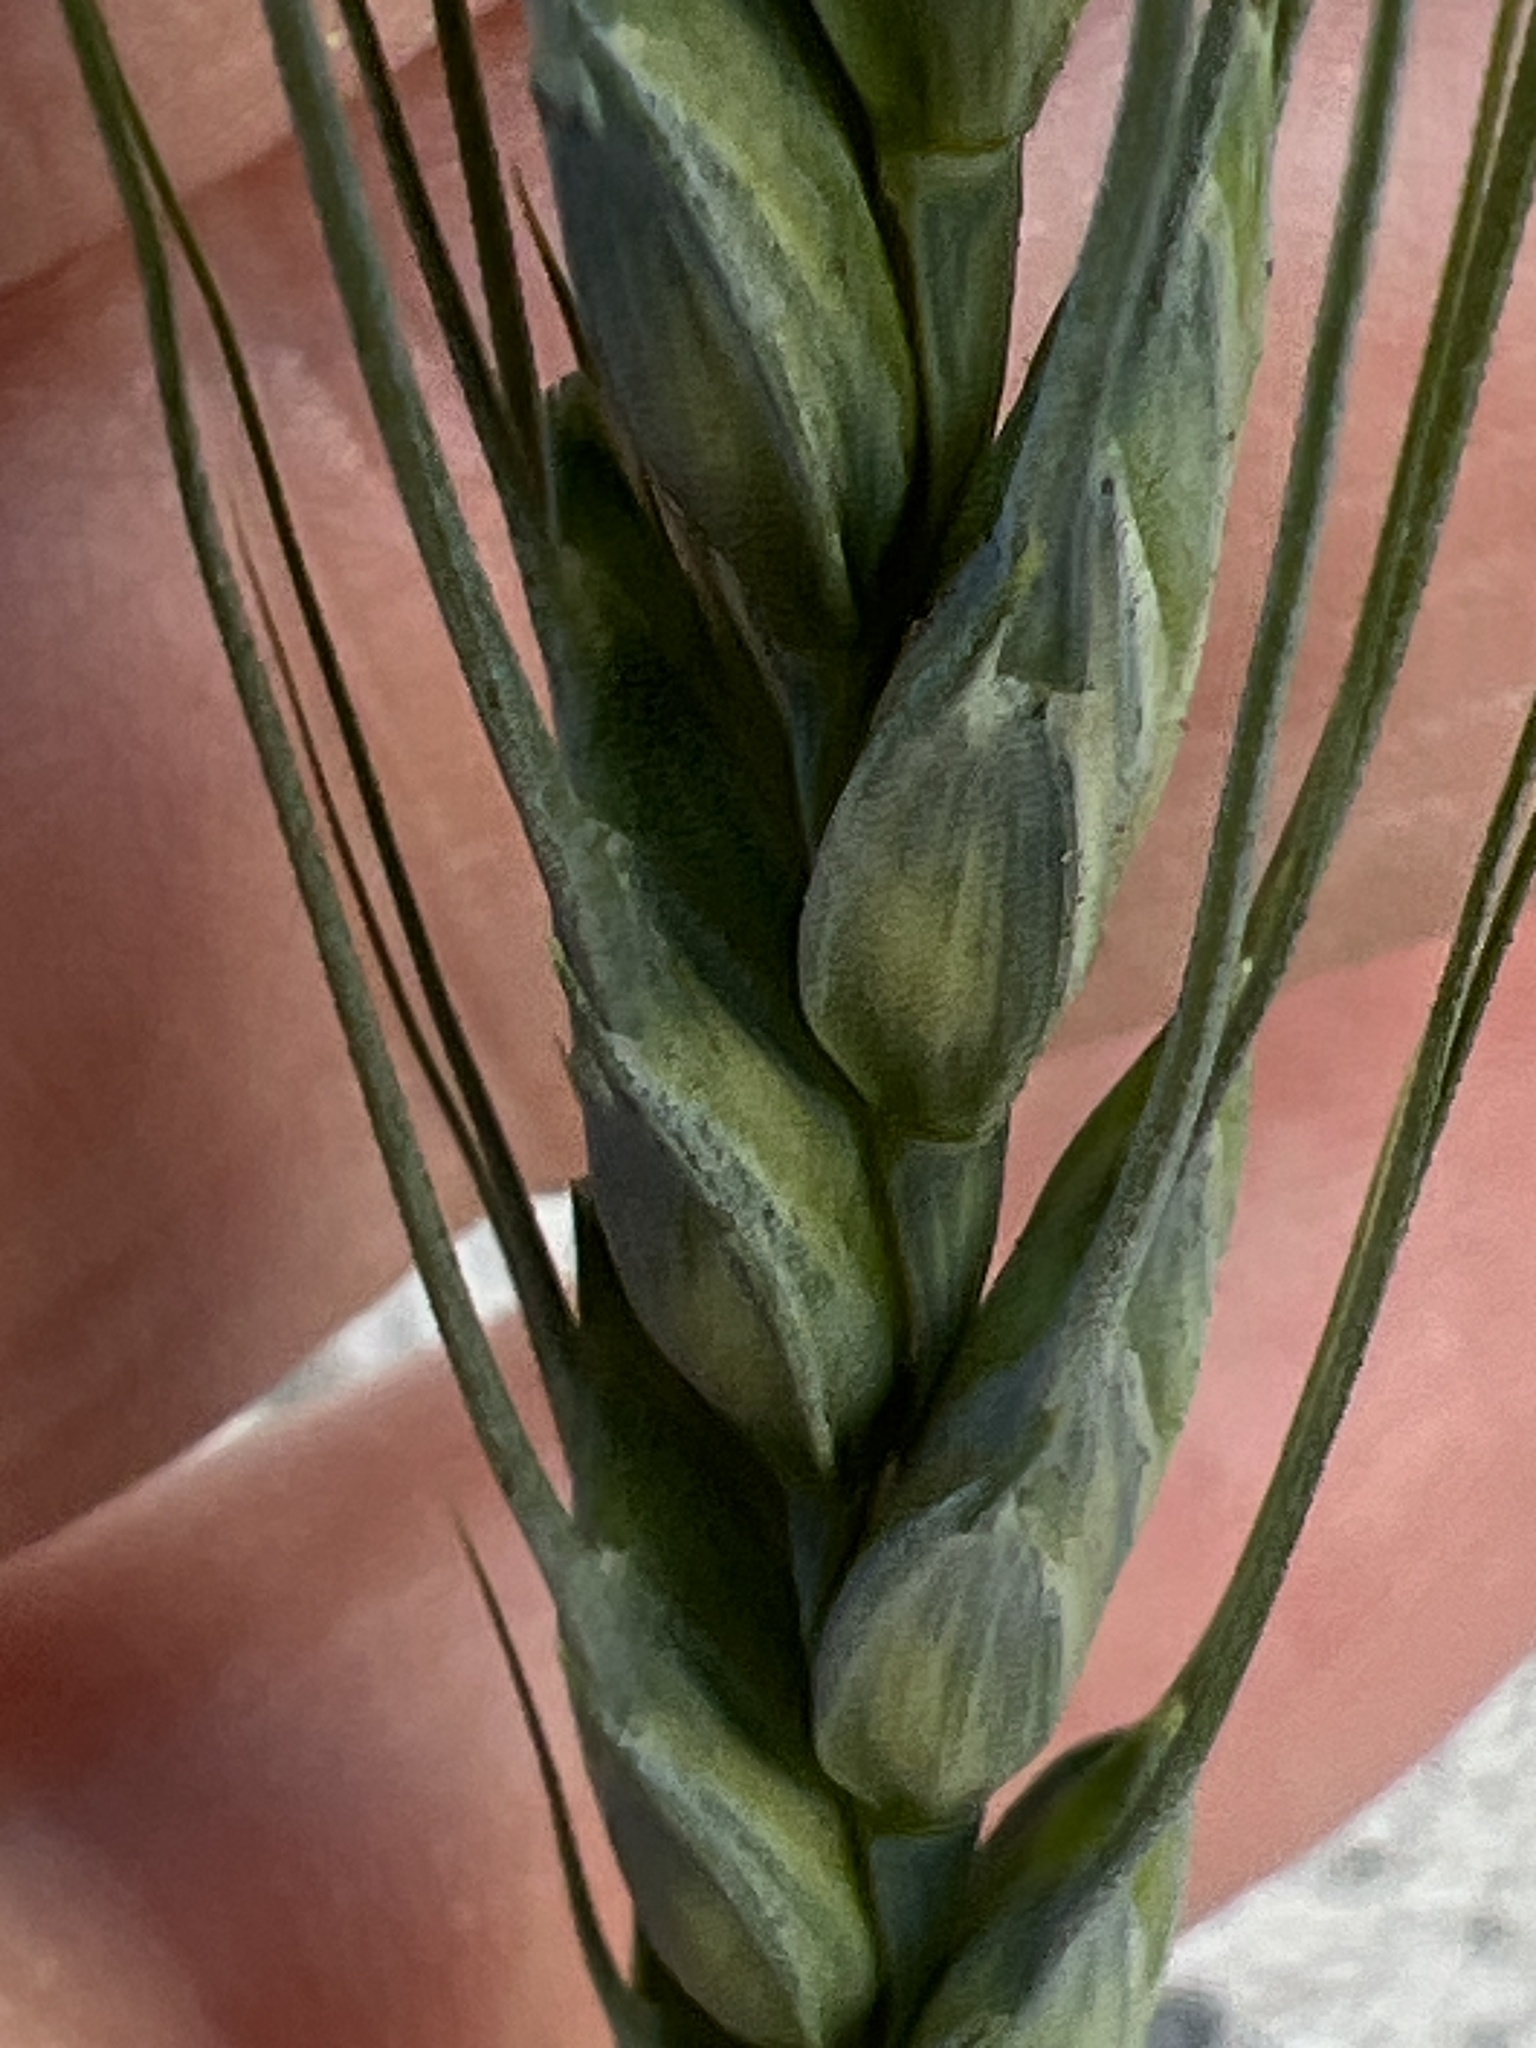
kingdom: Plantae
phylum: Tracheophyta
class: Liliopsida
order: Poales
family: Poaceae
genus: Triticum
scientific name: Triticum aestivum
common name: Common wheat
